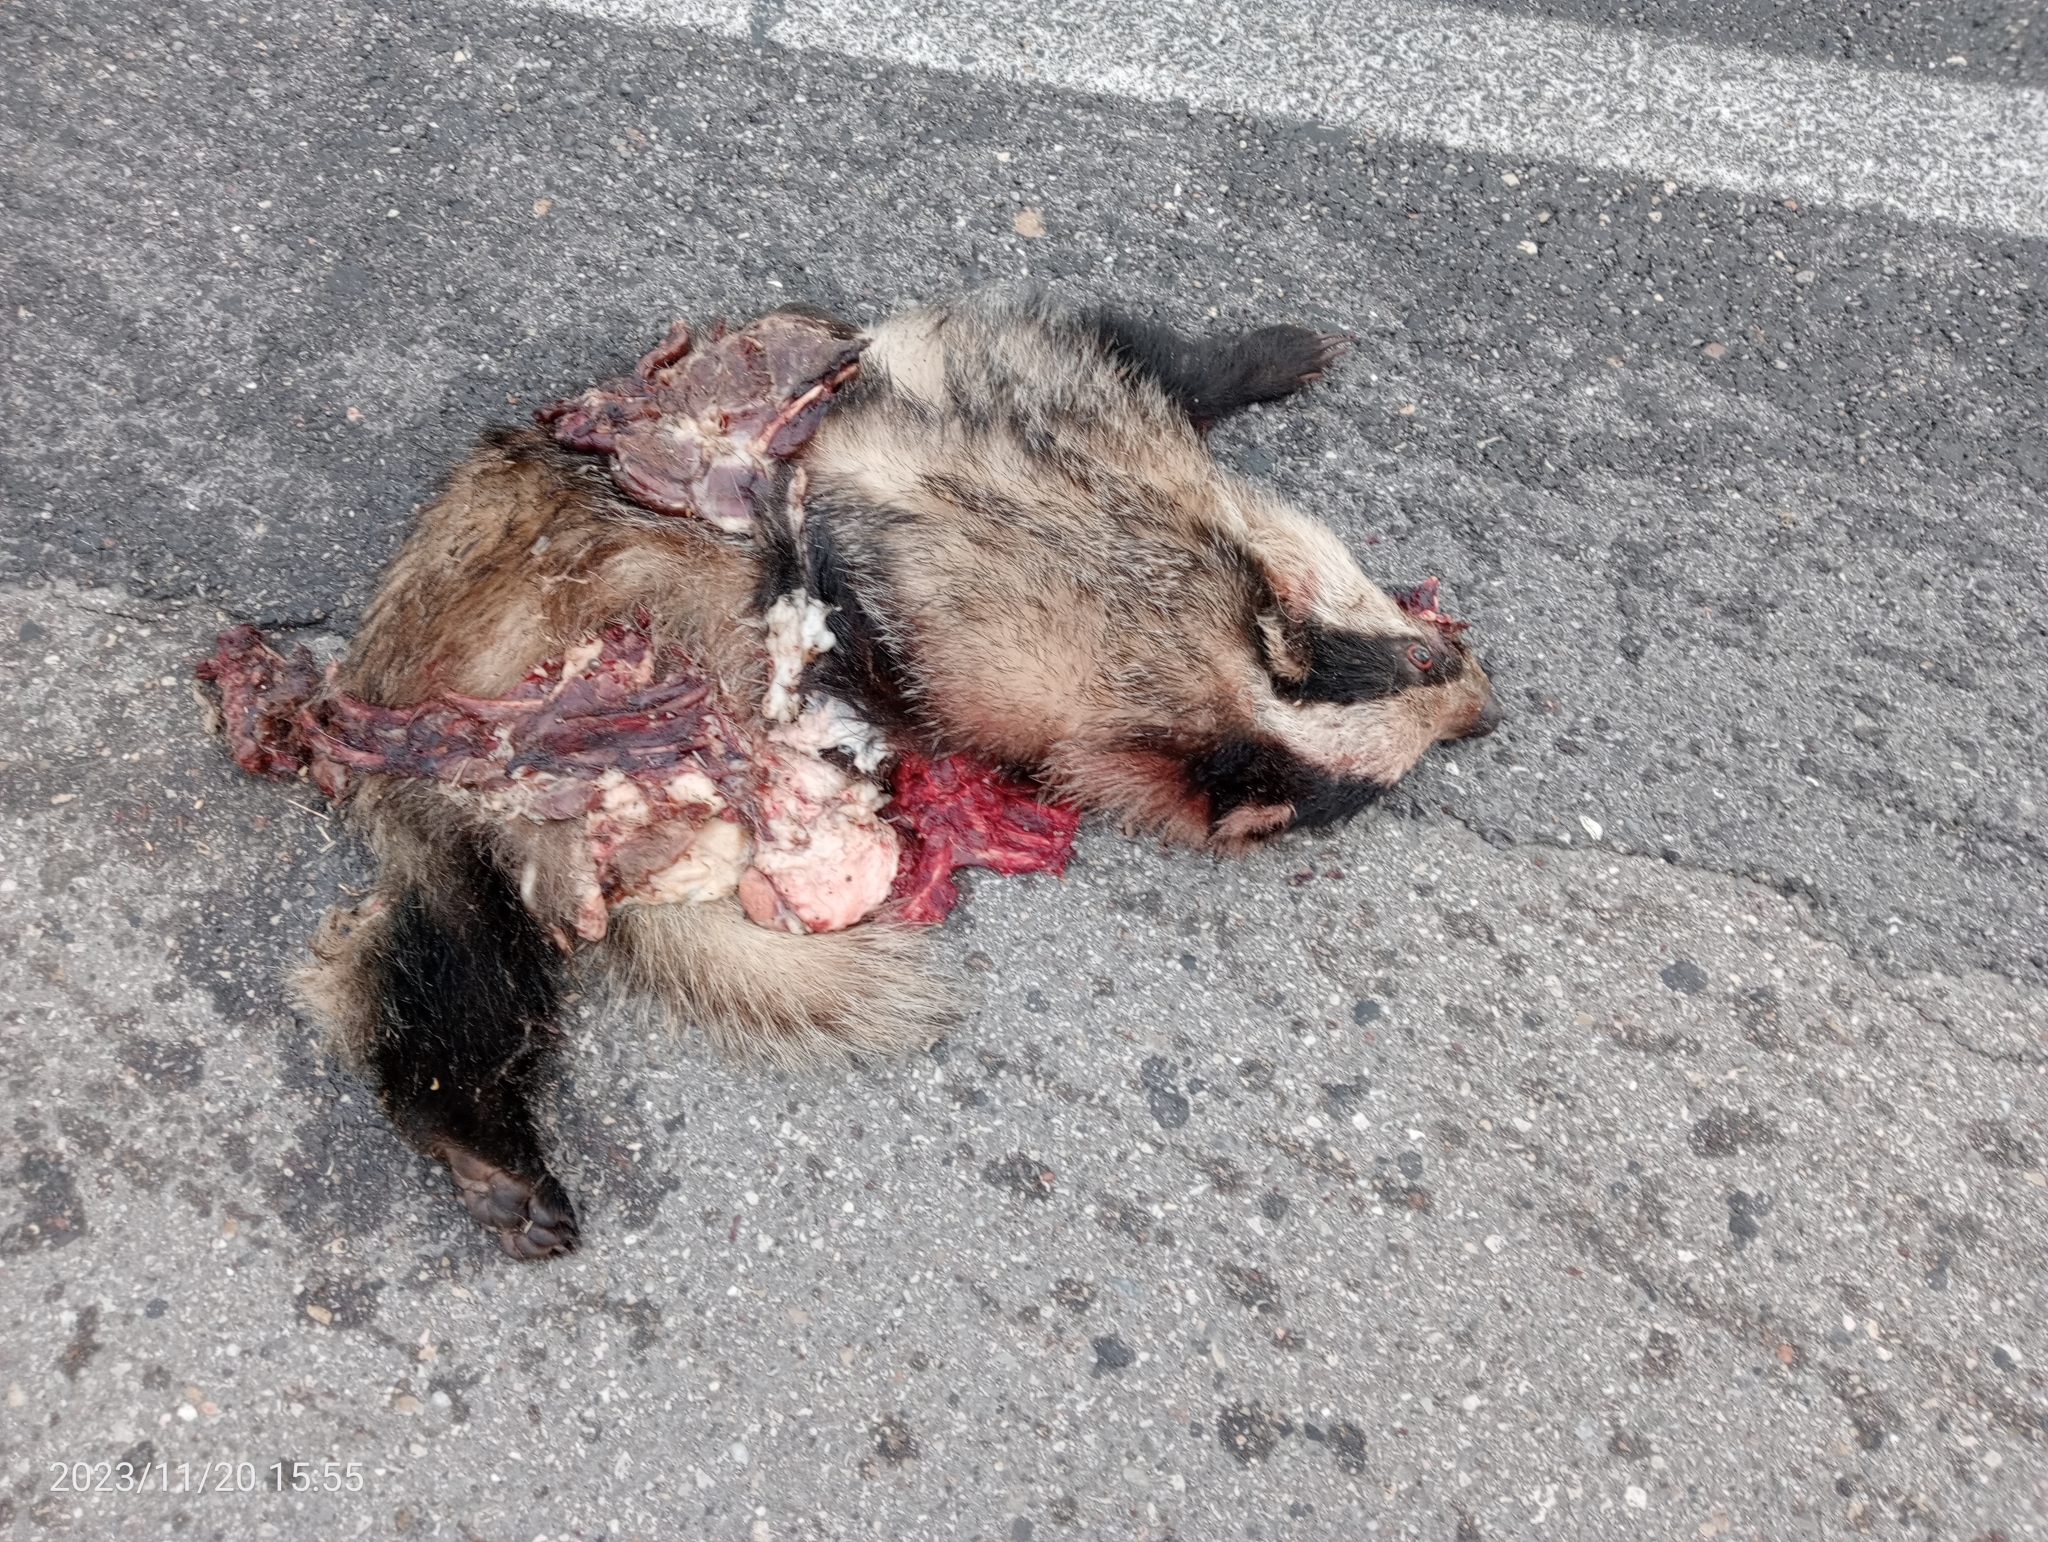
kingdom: Animalia
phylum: Chordata
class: Mammalia
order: Carnivora
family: Mustelidae
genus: Meles
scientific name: Meles meles
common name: Eurasian badger
